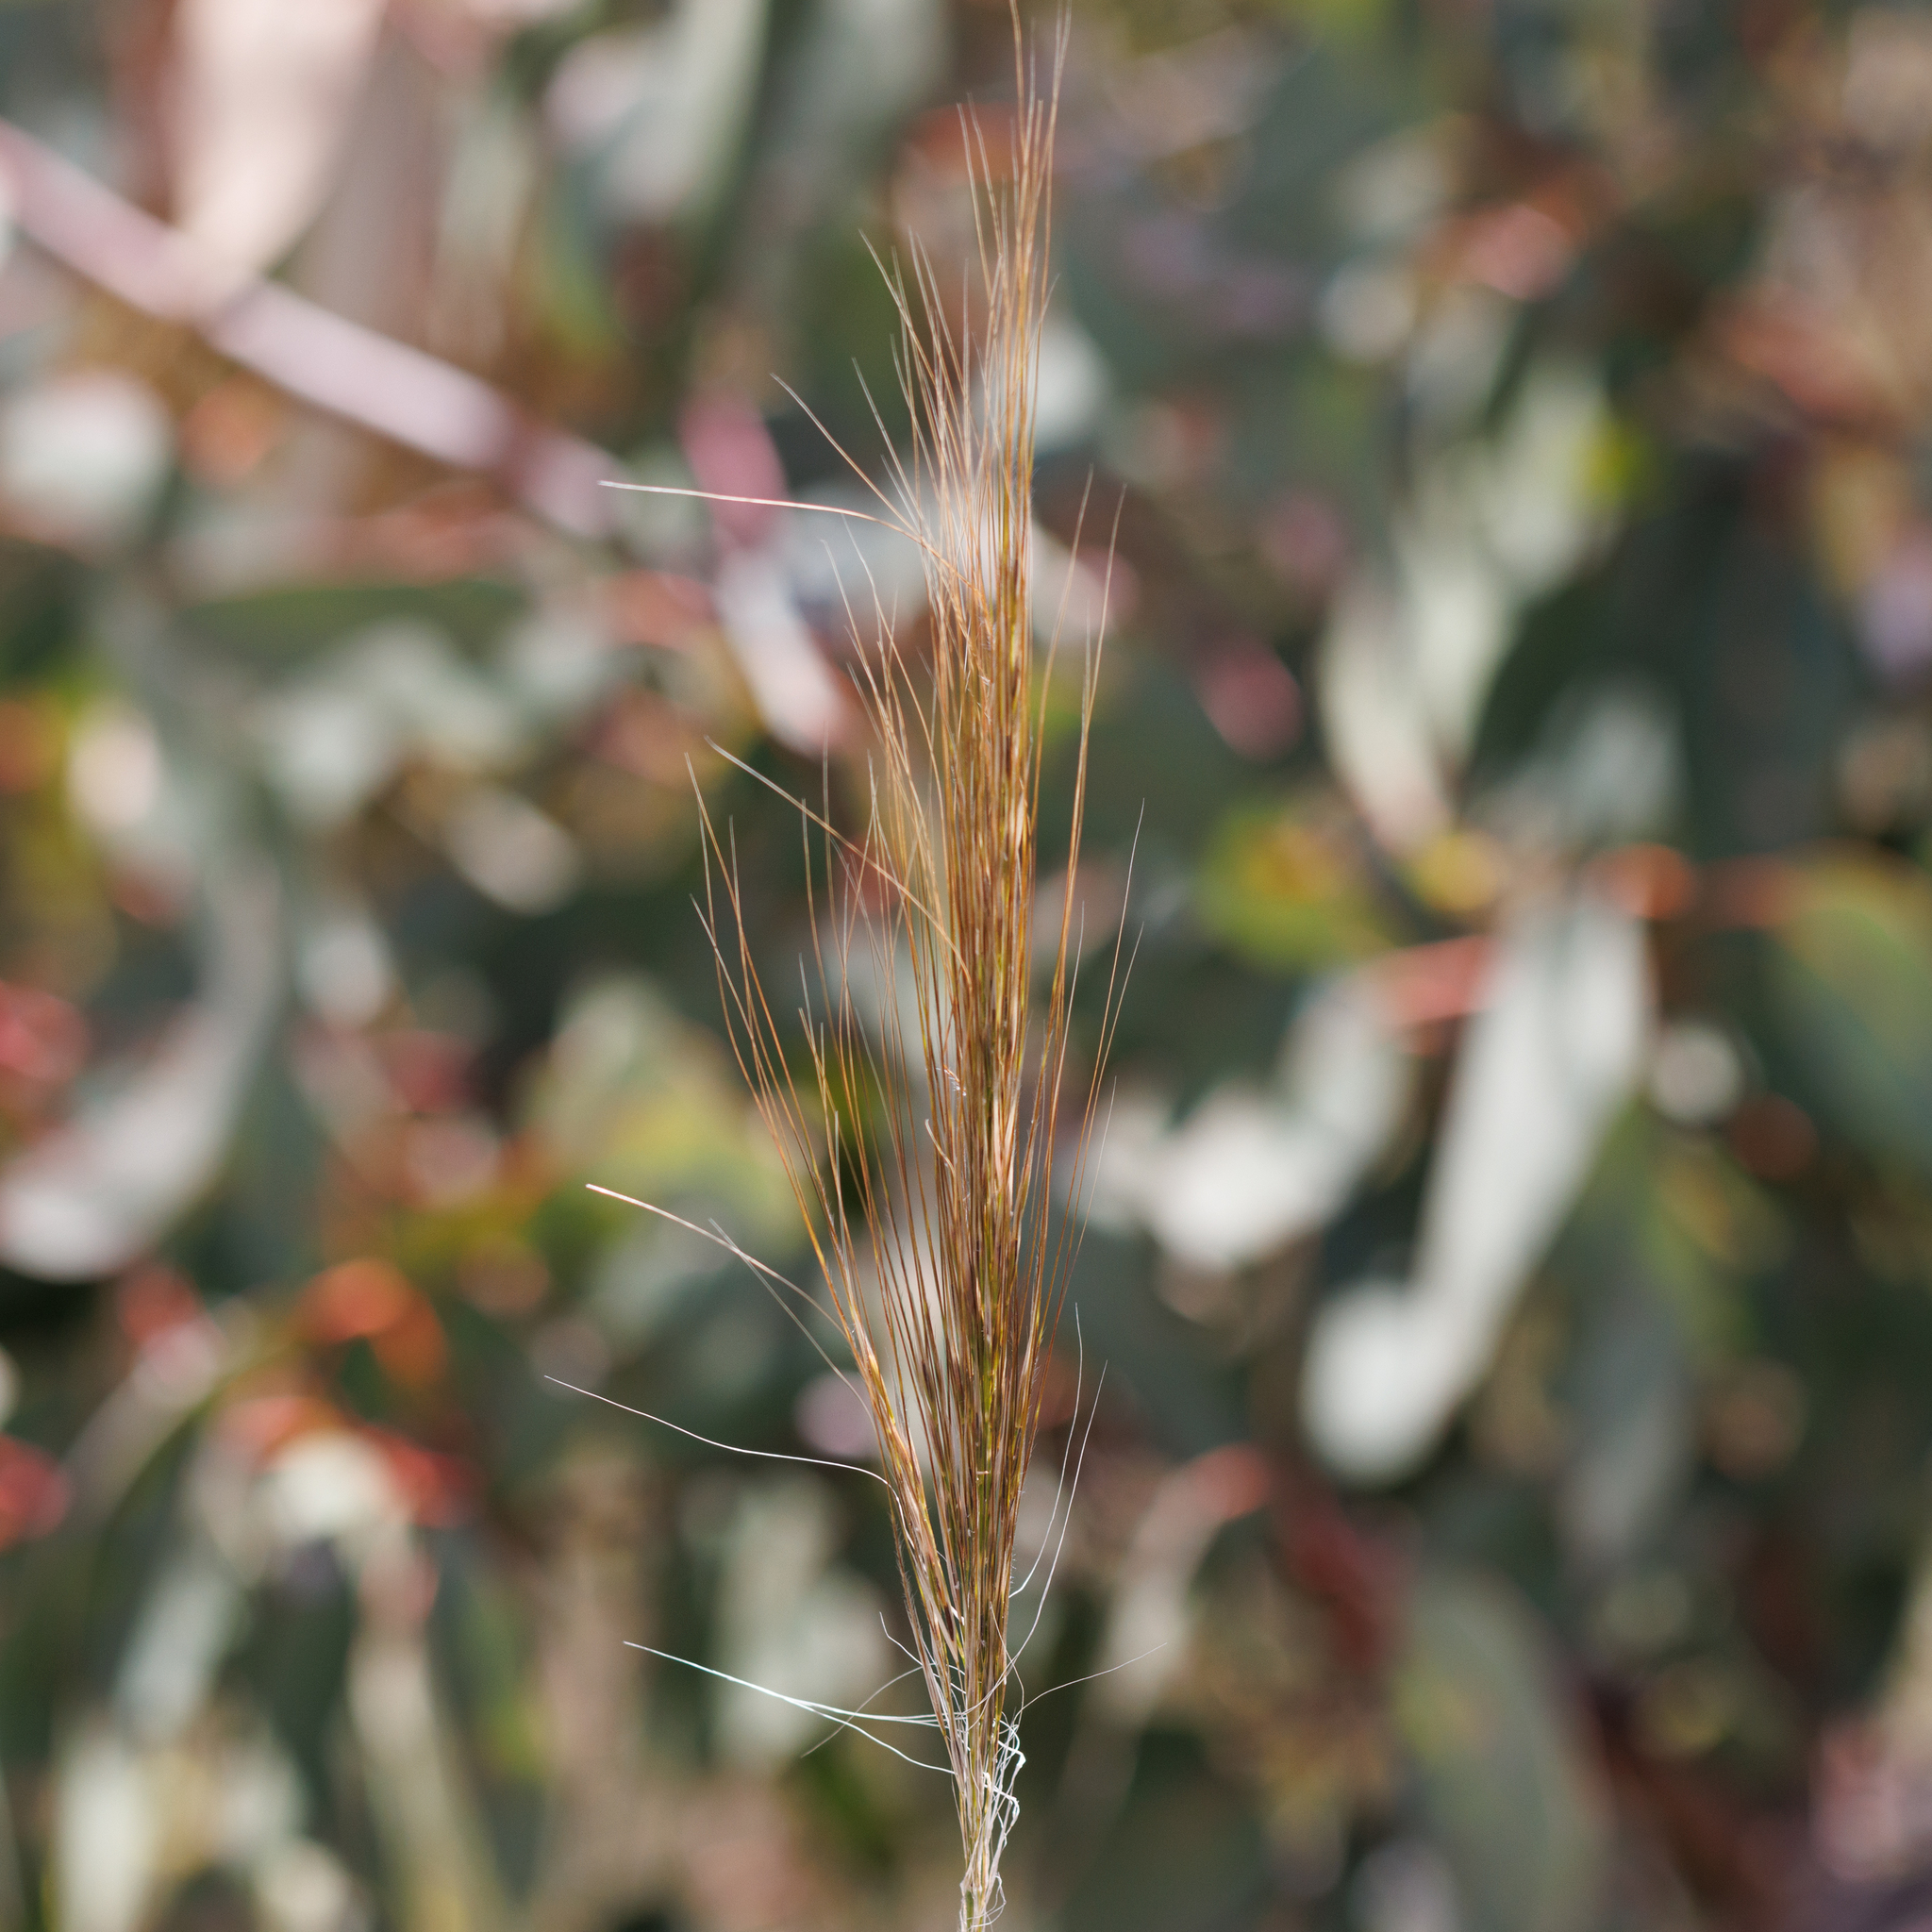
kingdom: Plantae
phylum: Tracheophyta
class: Liliopsida
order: Poales
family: Poaceae
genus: Austrostipa
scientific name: Austrostipa mollis
